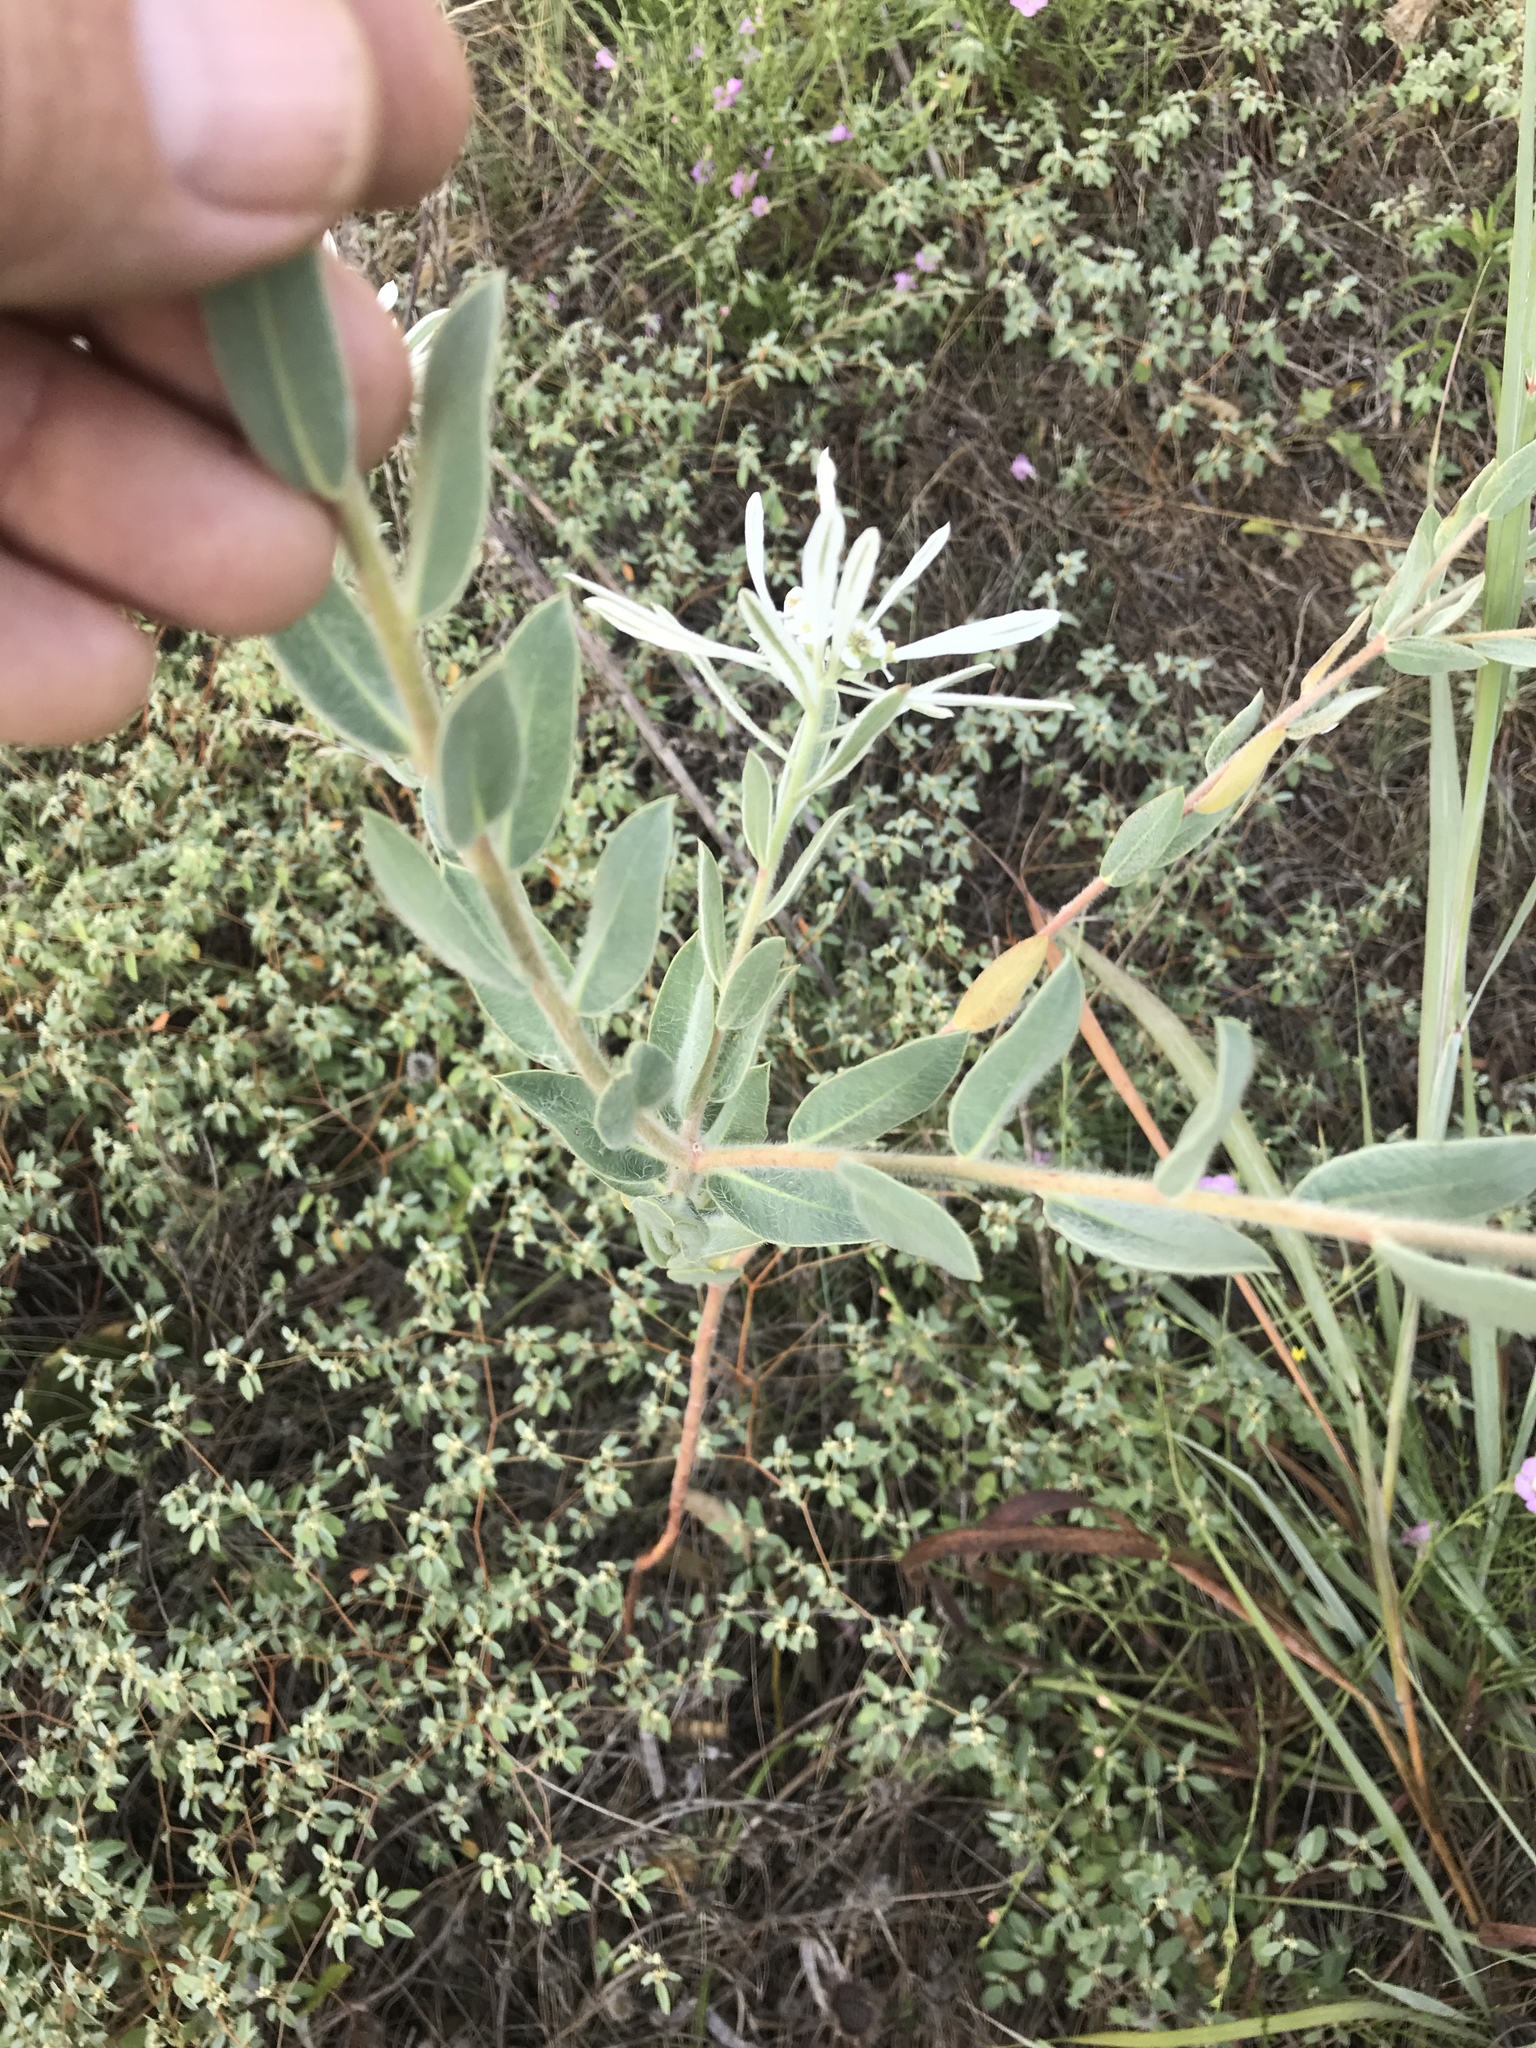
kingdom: Plantae
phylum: Tracheophyta
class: Magnoliopsida
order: Malpighiales
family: Euphorbiaceae
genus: Euphorbia
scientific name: Euphorbia bicolor
